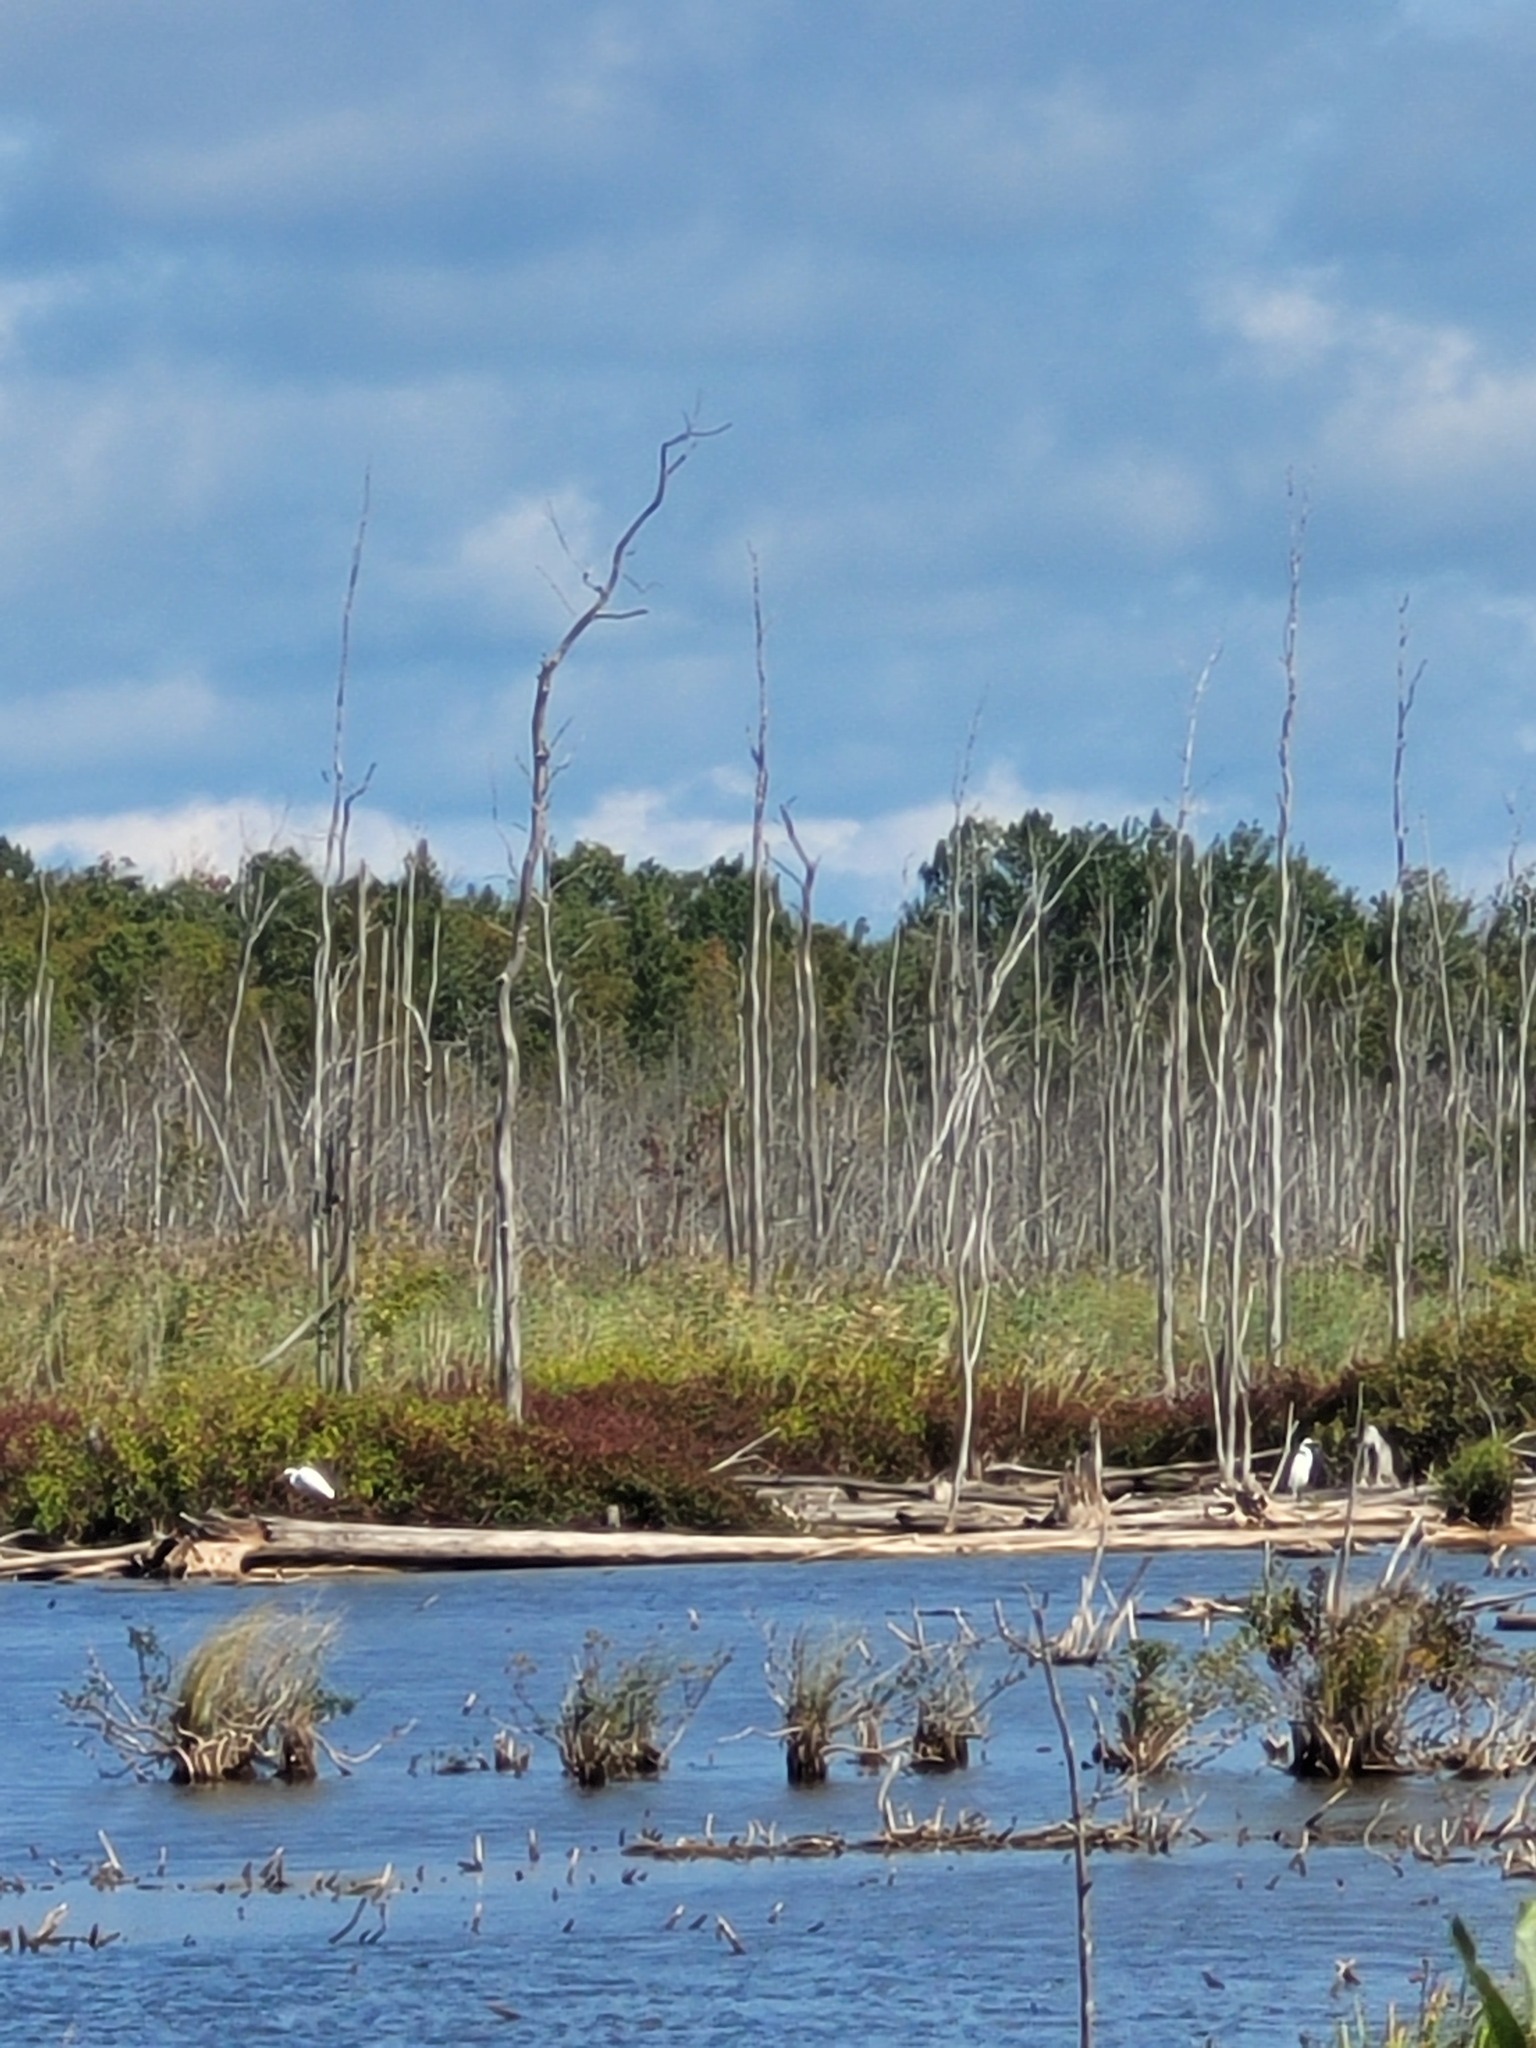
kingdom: Animalia
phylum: Chordata
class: Aves
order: Pelecaniformes
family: Ardeidae
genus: Ardea
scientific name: Ardea alba
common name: Great egret
